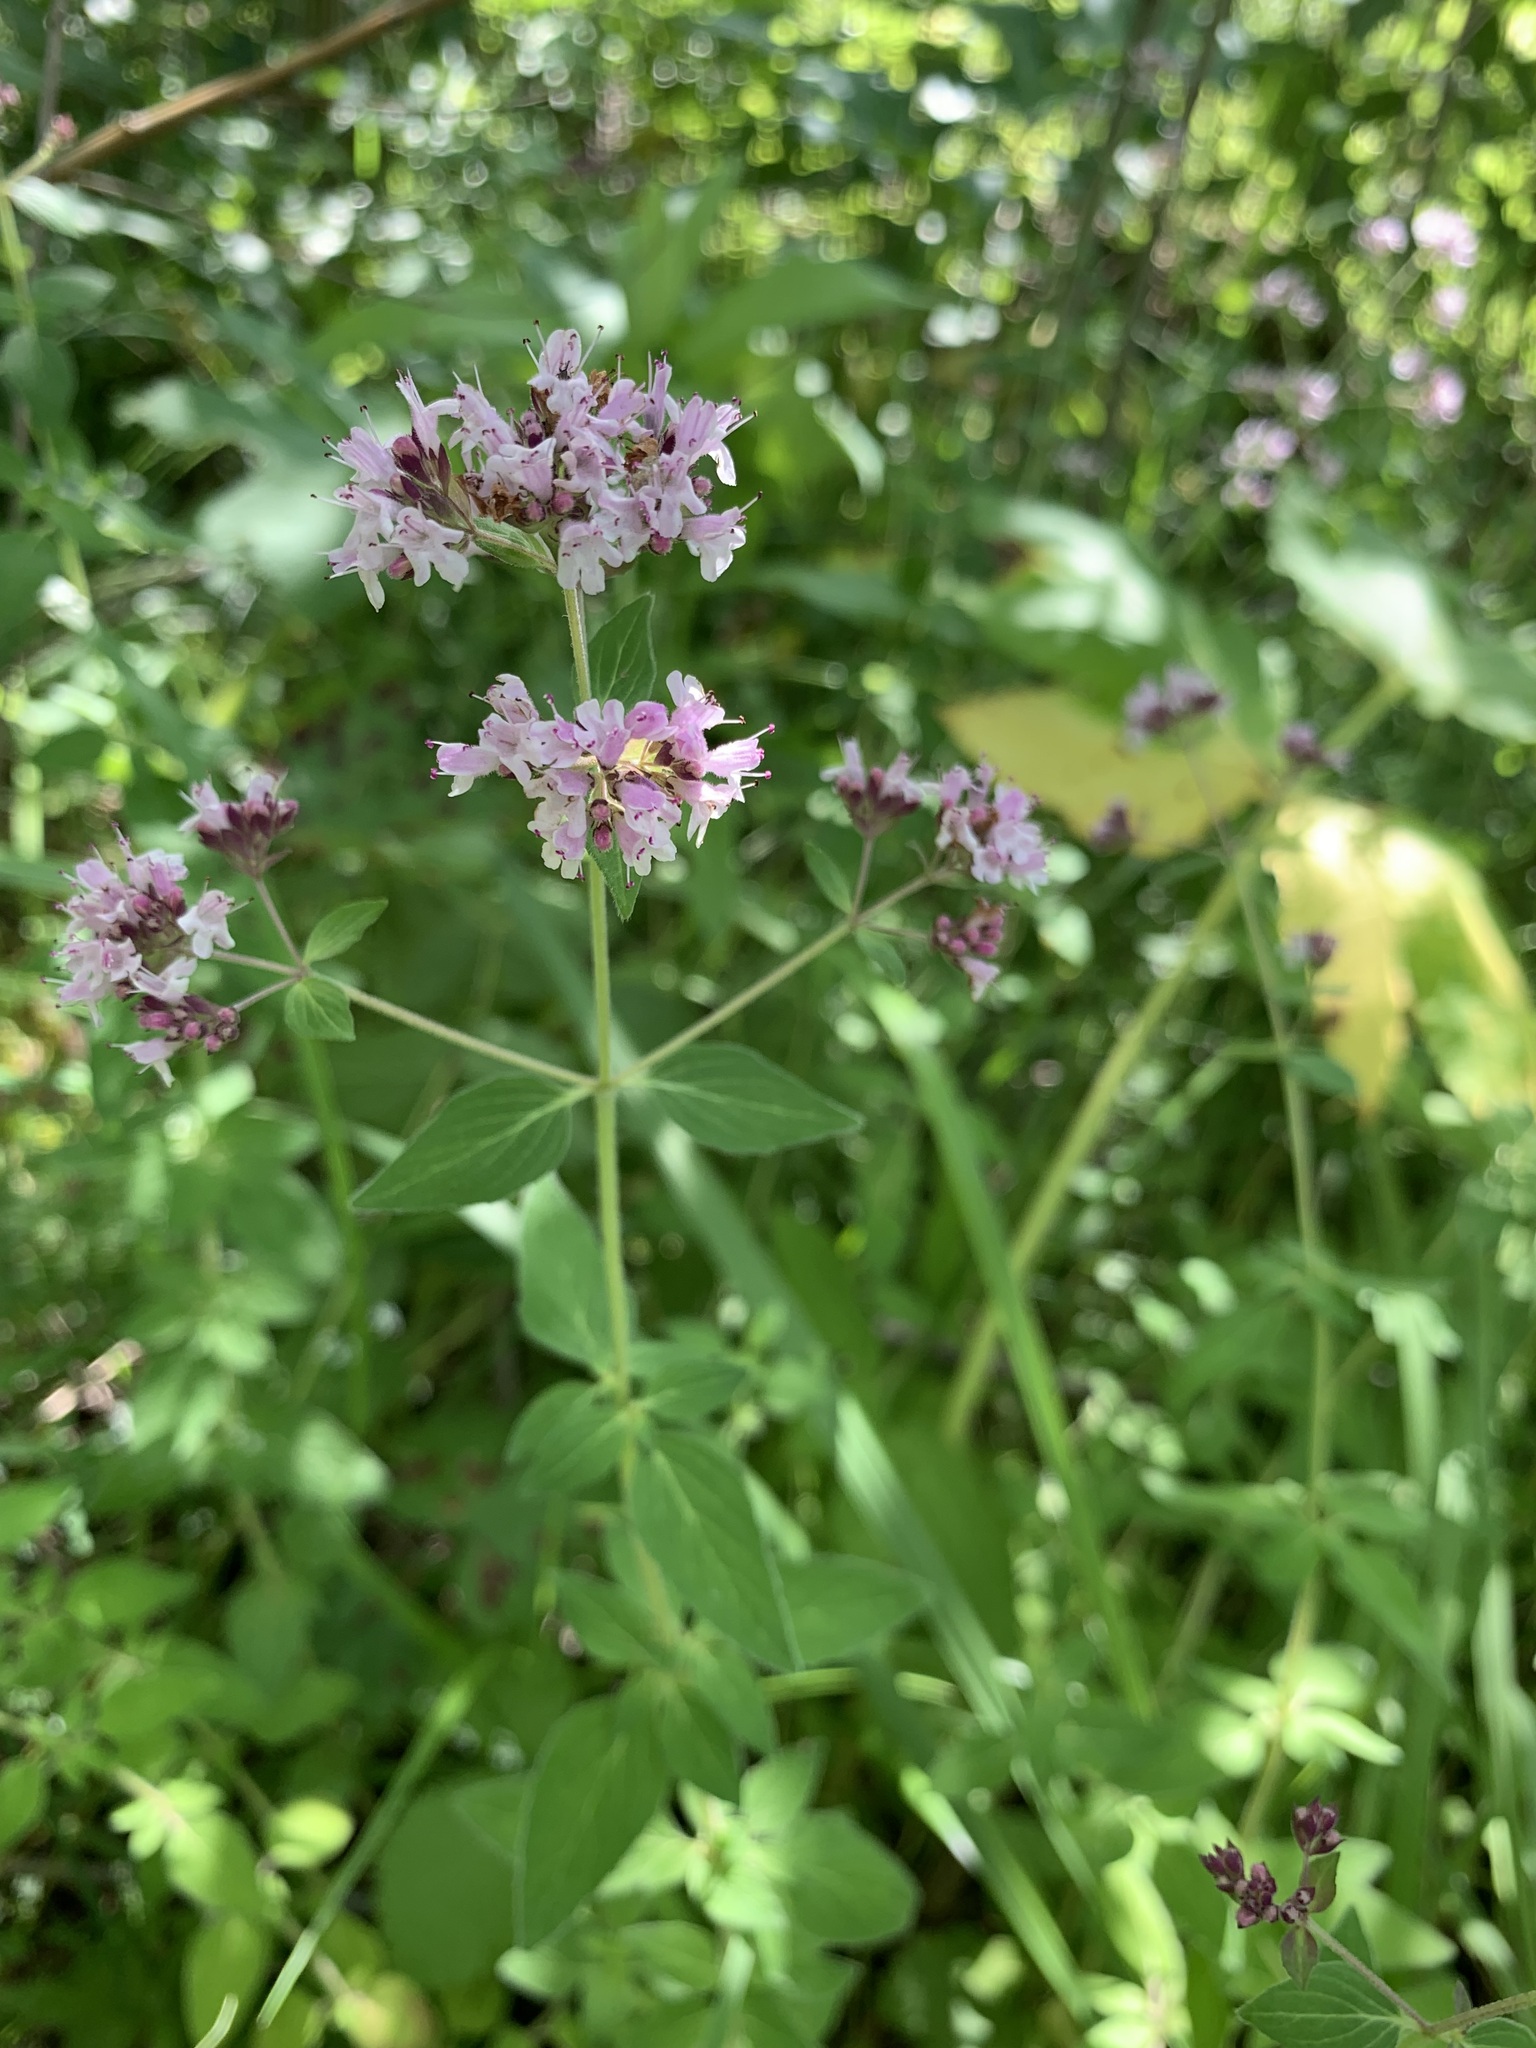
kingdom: Plantae
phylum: Tracheophyta
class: Magnoliopsida
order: Lamiales
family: Lamiaceae
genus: Origanum
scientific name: Origanum vulgare
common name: Wild marjoram
